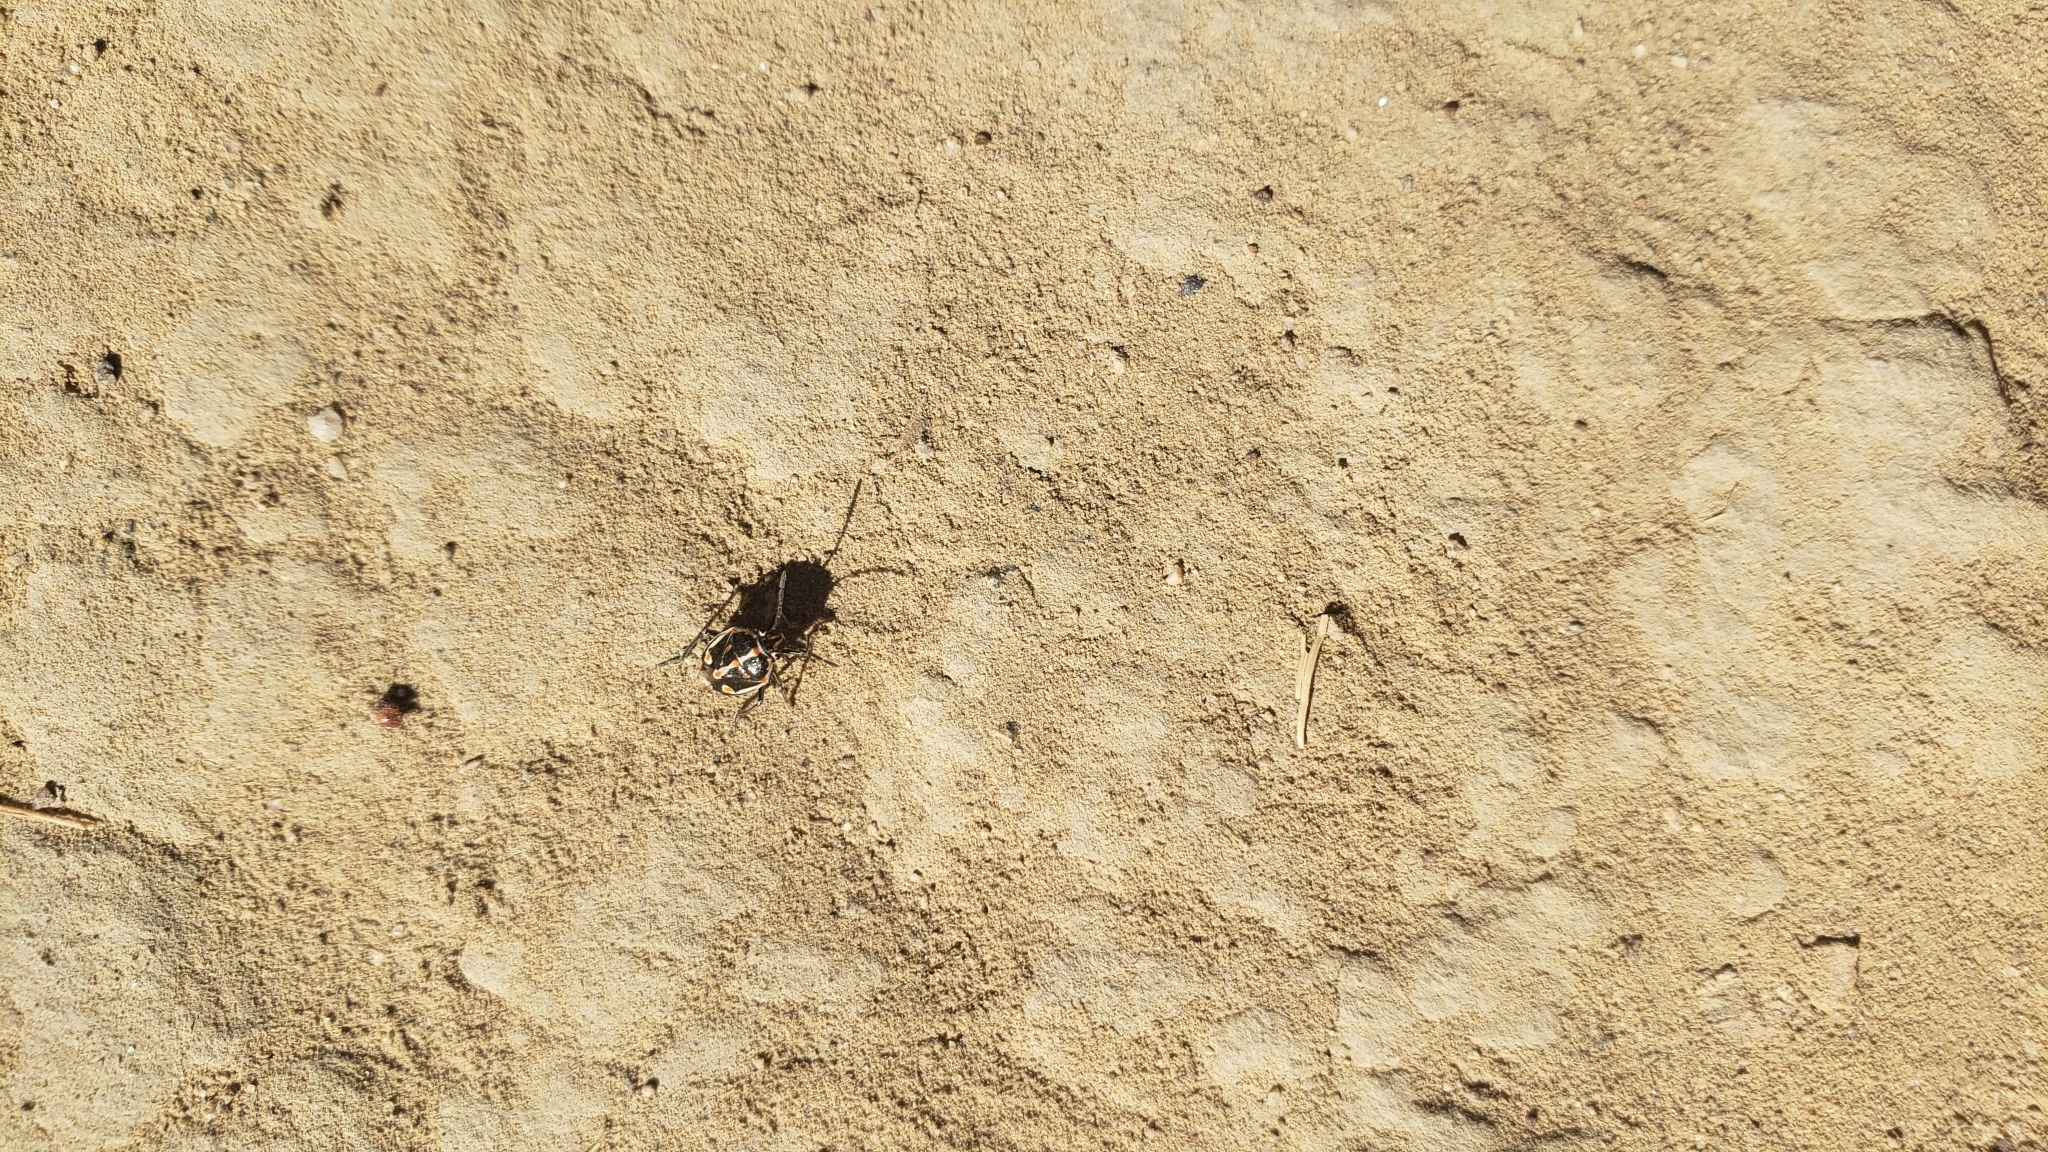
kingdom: Animalia
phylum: Arthropoda
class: Insecta
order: Hemiptera
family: Pentatomidae
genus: Bagrada
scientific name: Bagrada hilaris
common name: Bagrada bug
